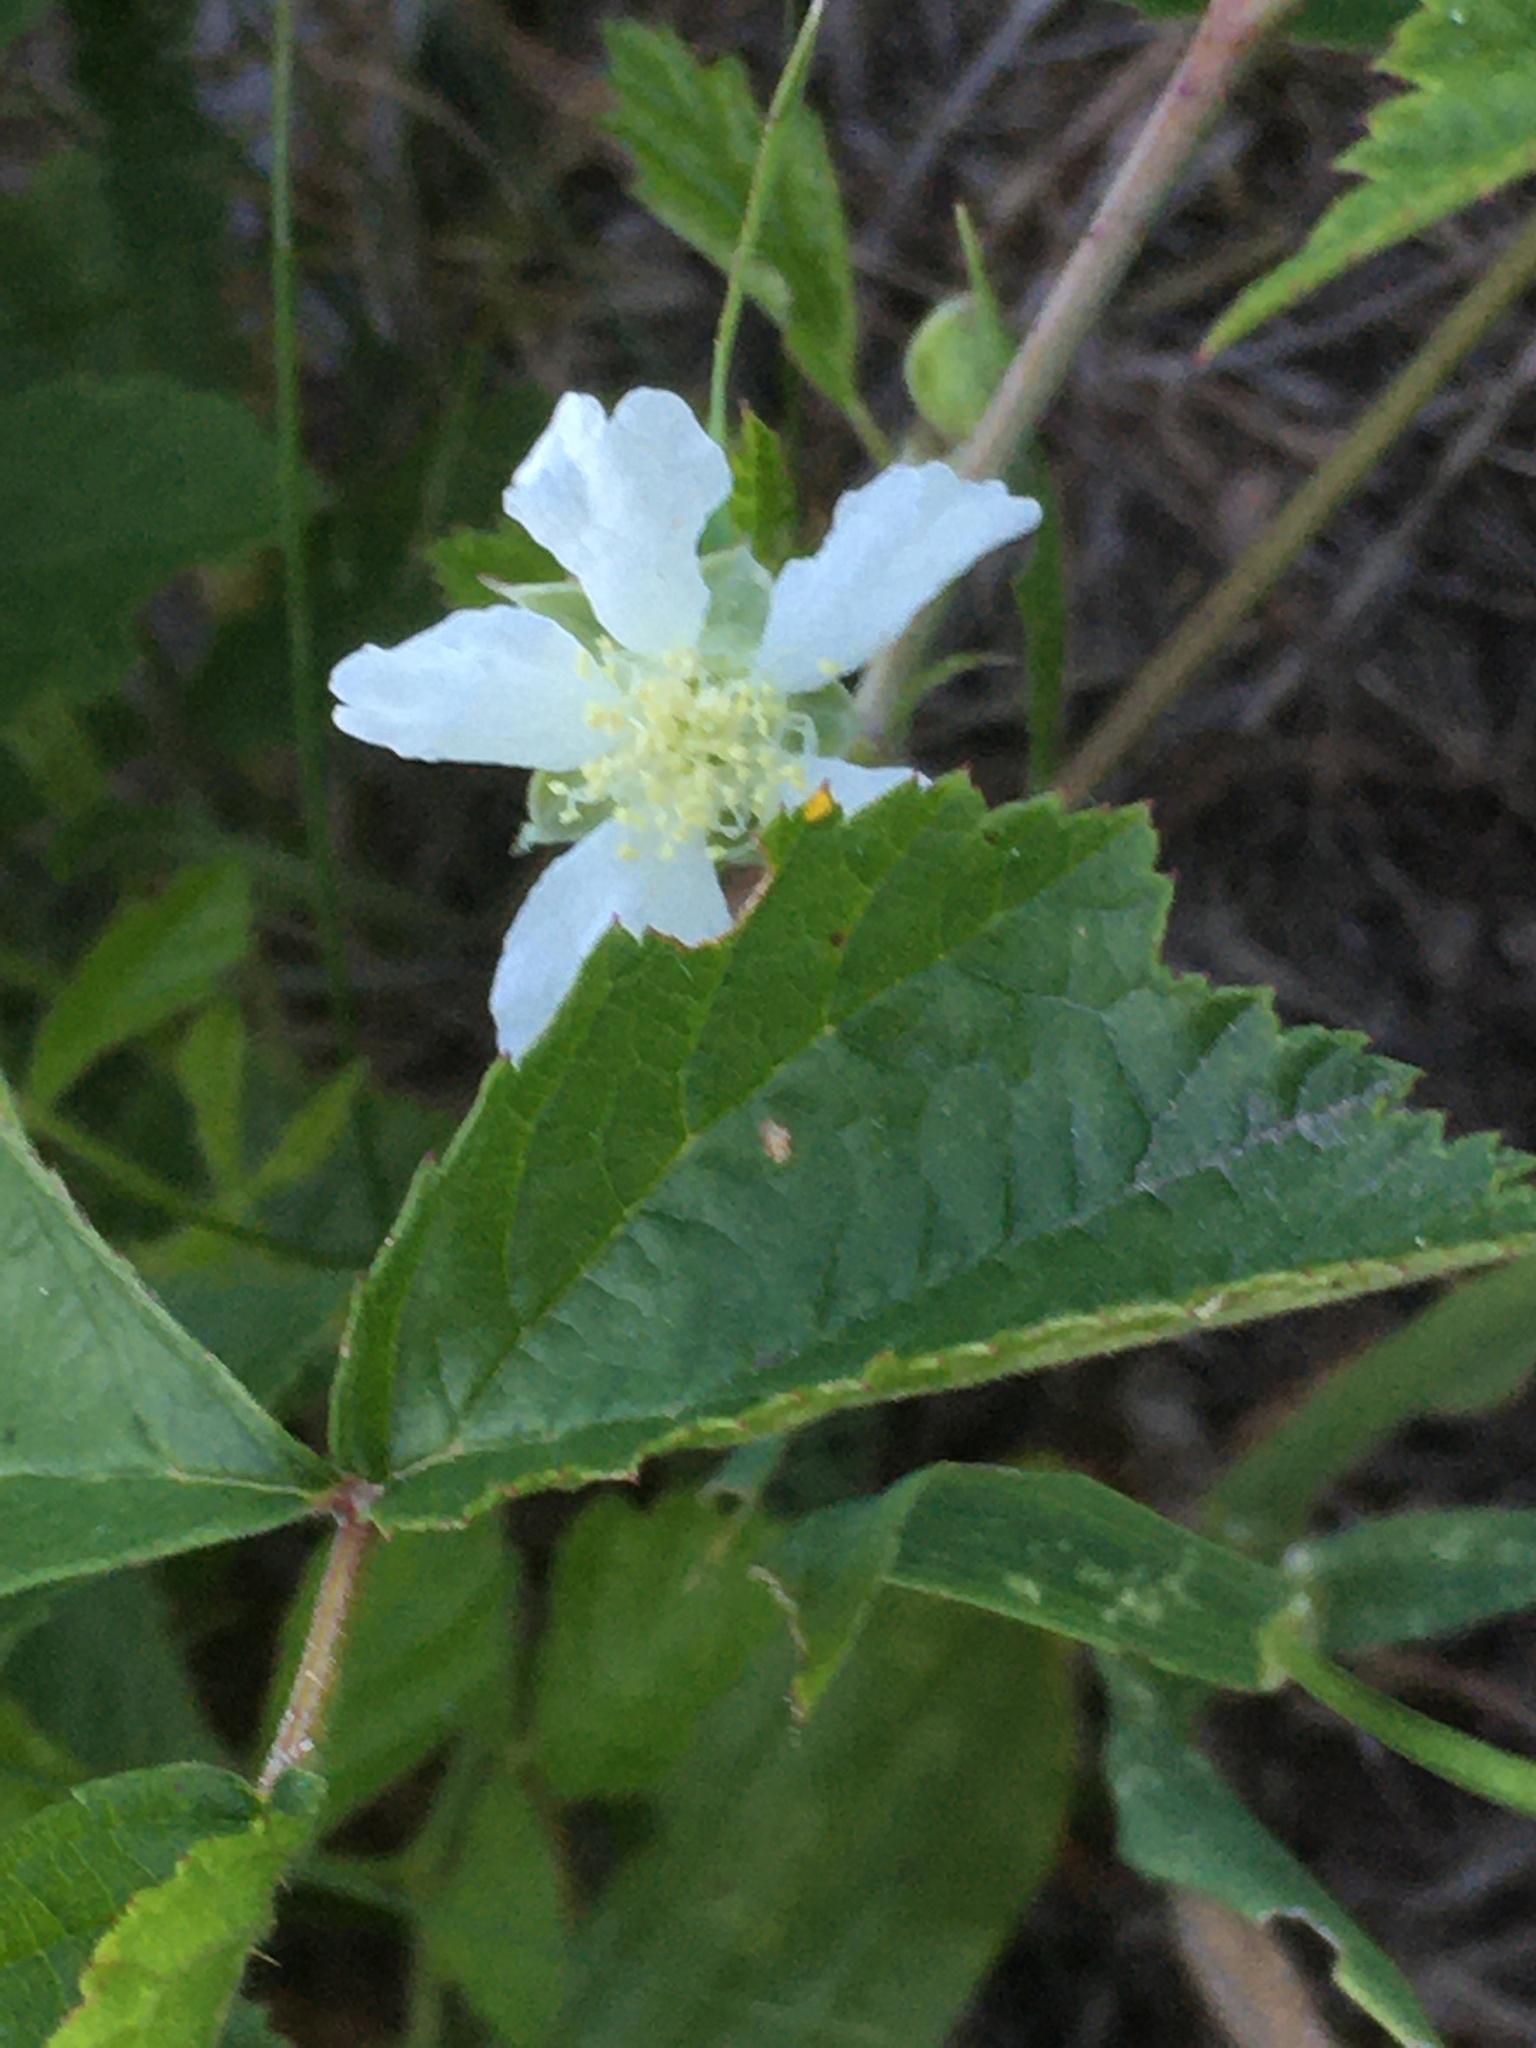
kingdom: Plantae
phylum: Tracheophyta
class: Magnoliopsida
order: Rosales
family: Rosaceae
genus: Rubus
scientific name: Rubus caesius
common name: Dewberry
